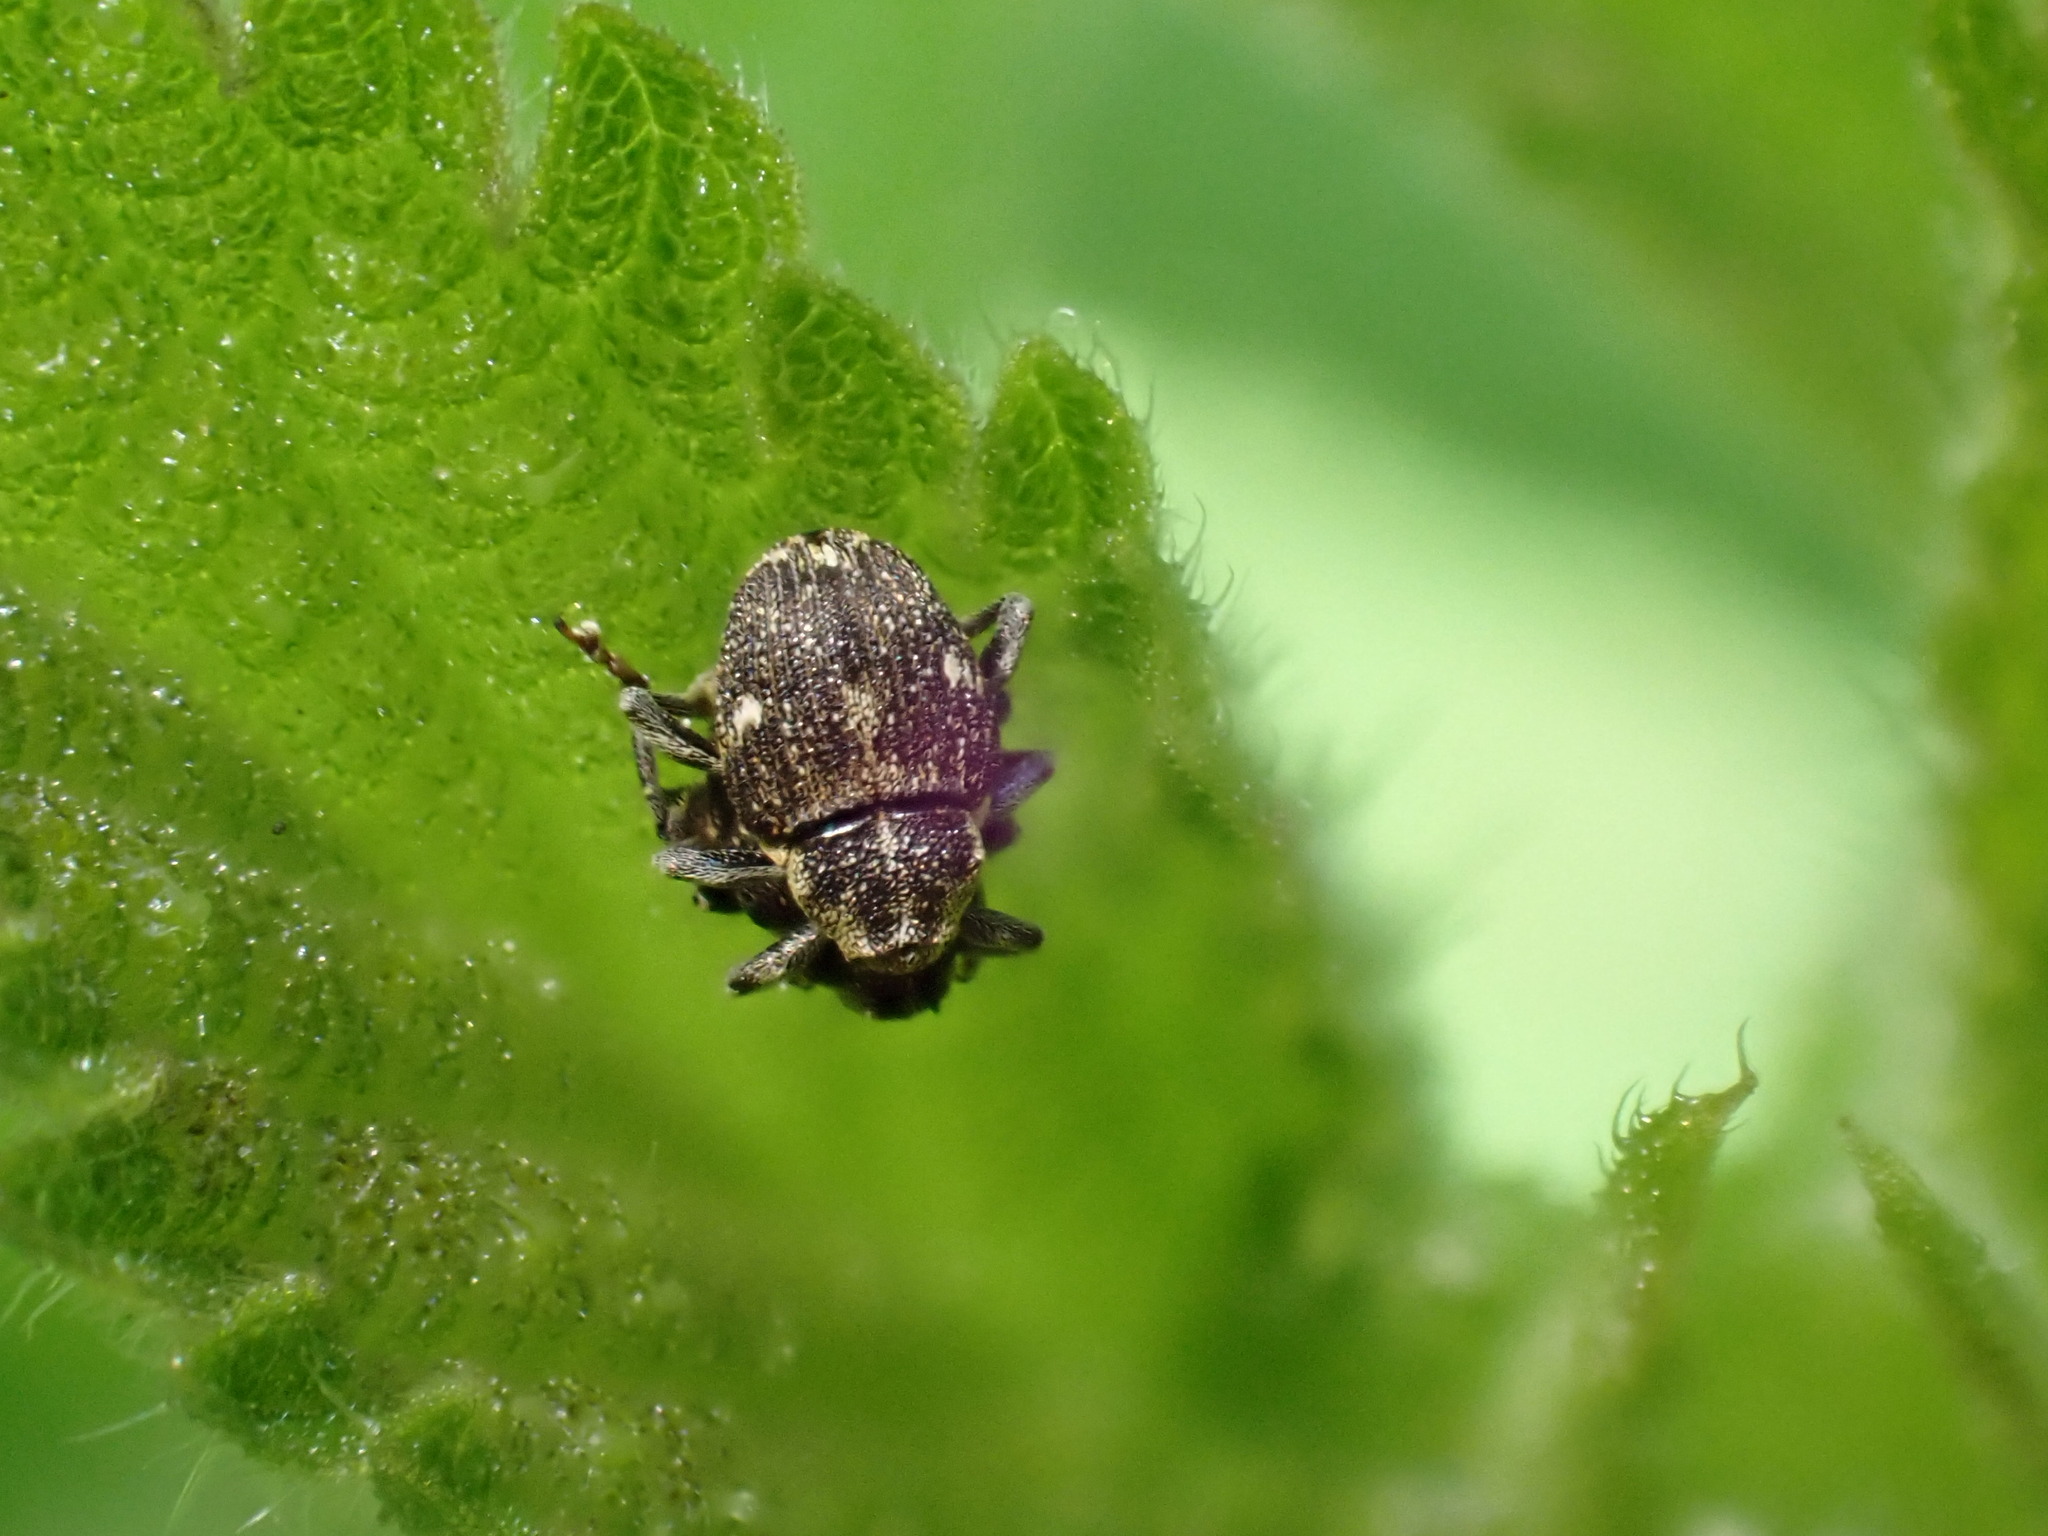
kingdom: Animalia
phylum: Arthropoda
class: Insecta
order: Coleoptera
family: Curculionidae
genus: Nedyus
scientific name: Nedyus quadrimaculatus
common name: Small nettle weevil
